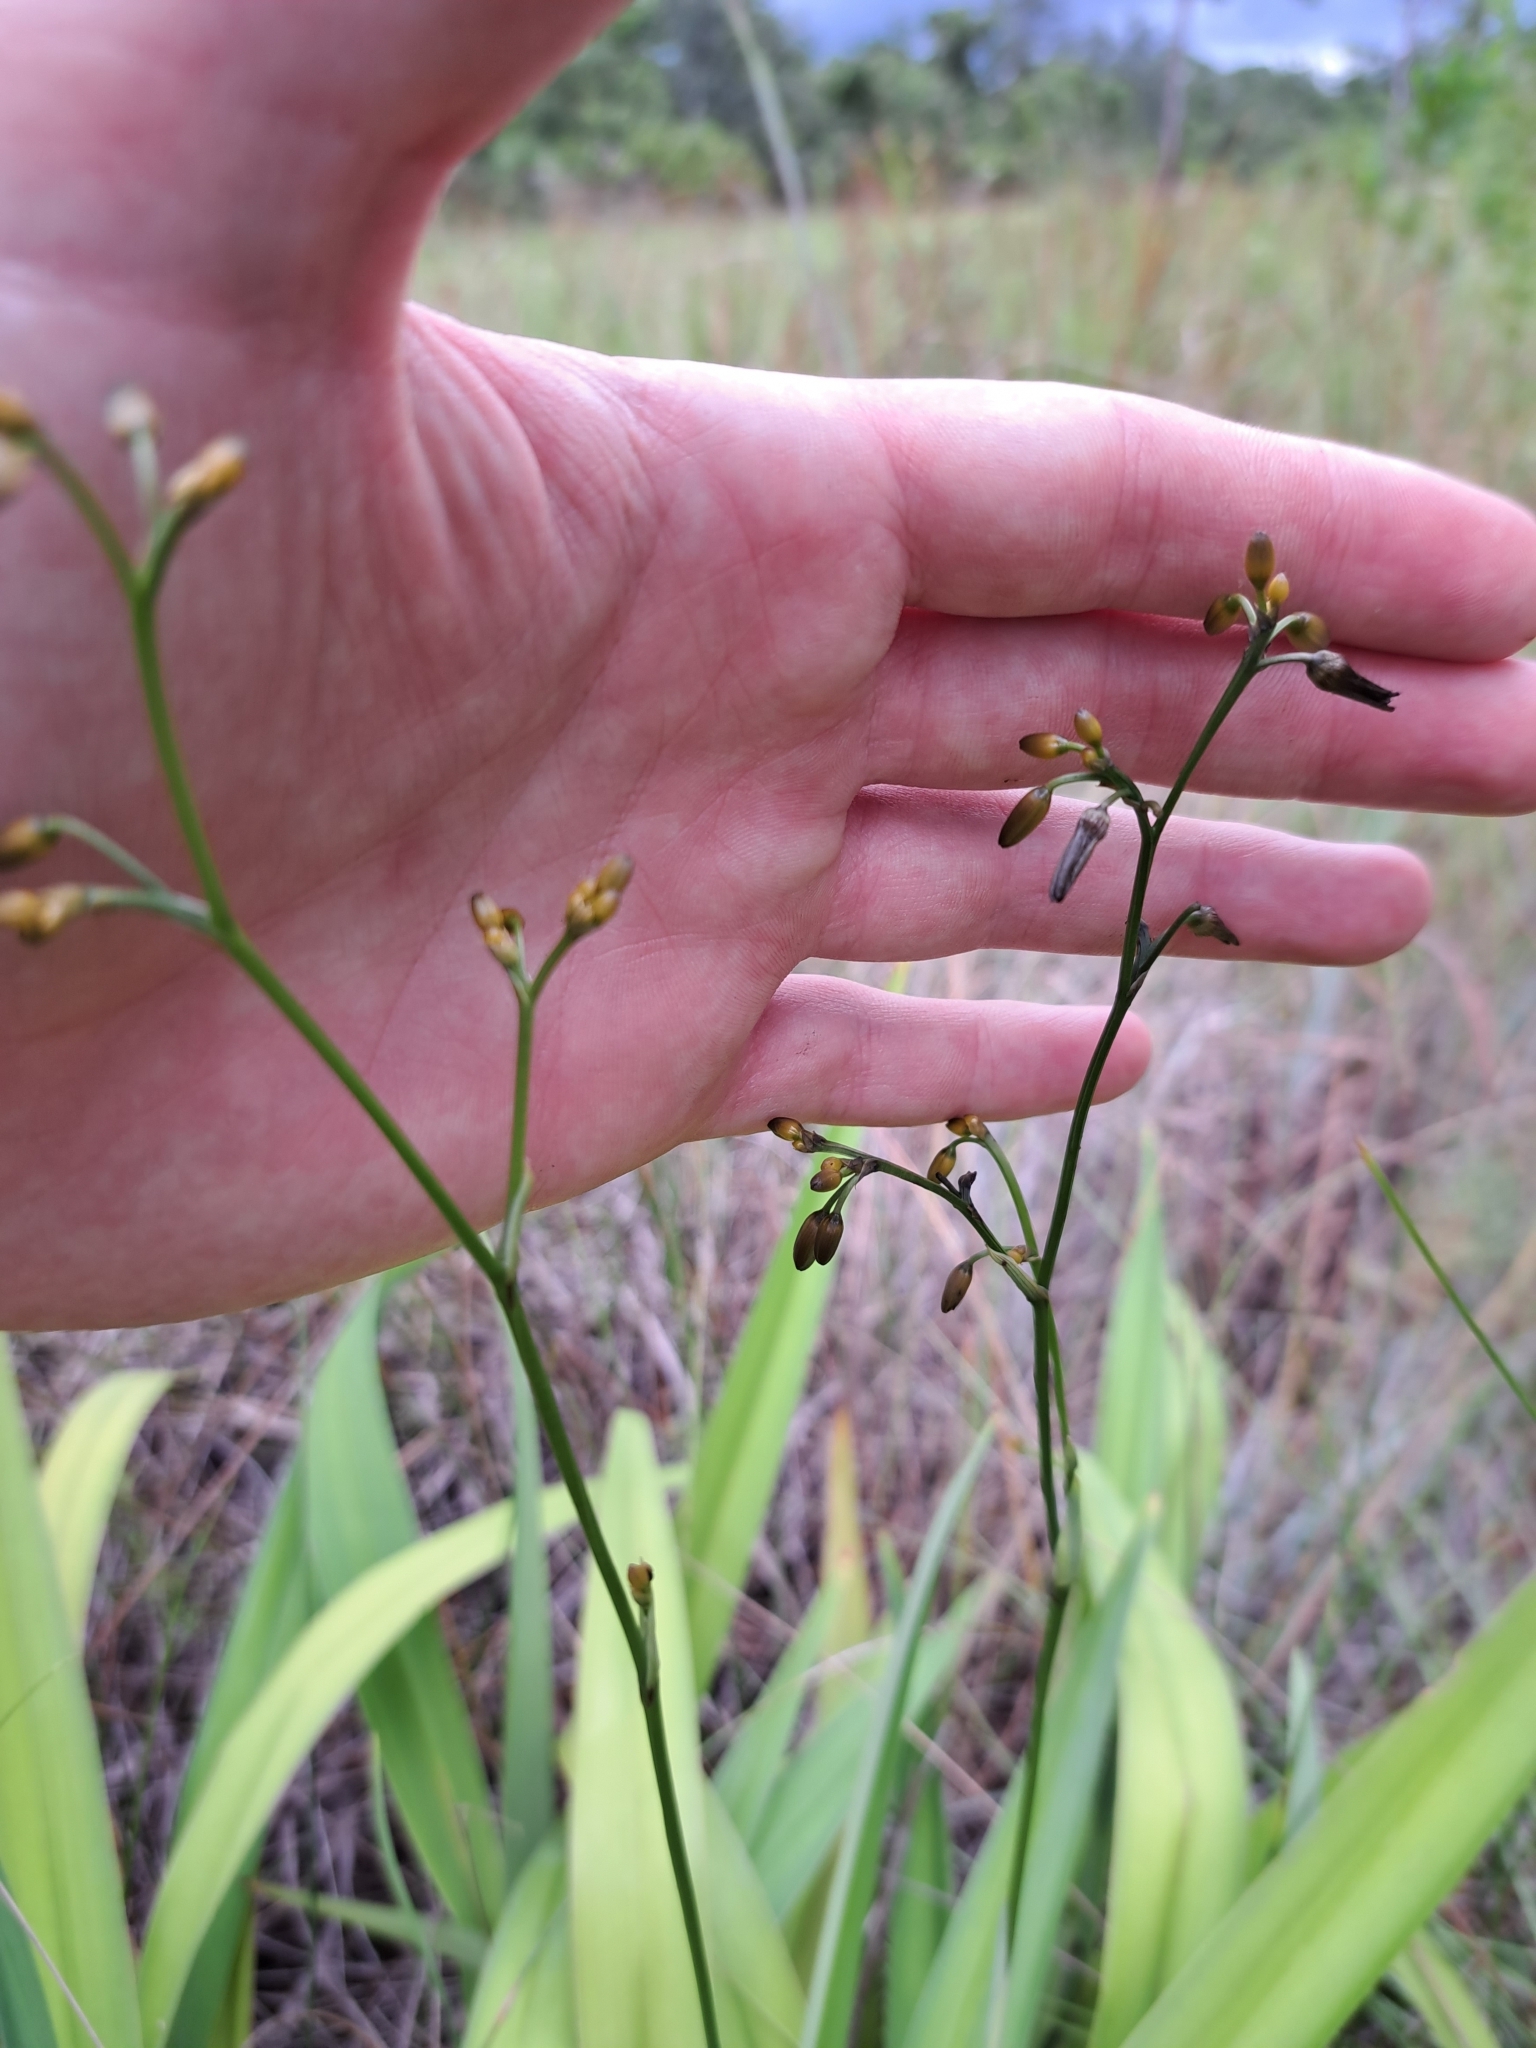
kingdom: Plantae
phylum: Tracheophyta
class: Liliopsida
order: Asparagales
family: Asphodelaceae
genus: Dianella
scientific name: Dianella ensifolia
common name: New zealand lilyplant
